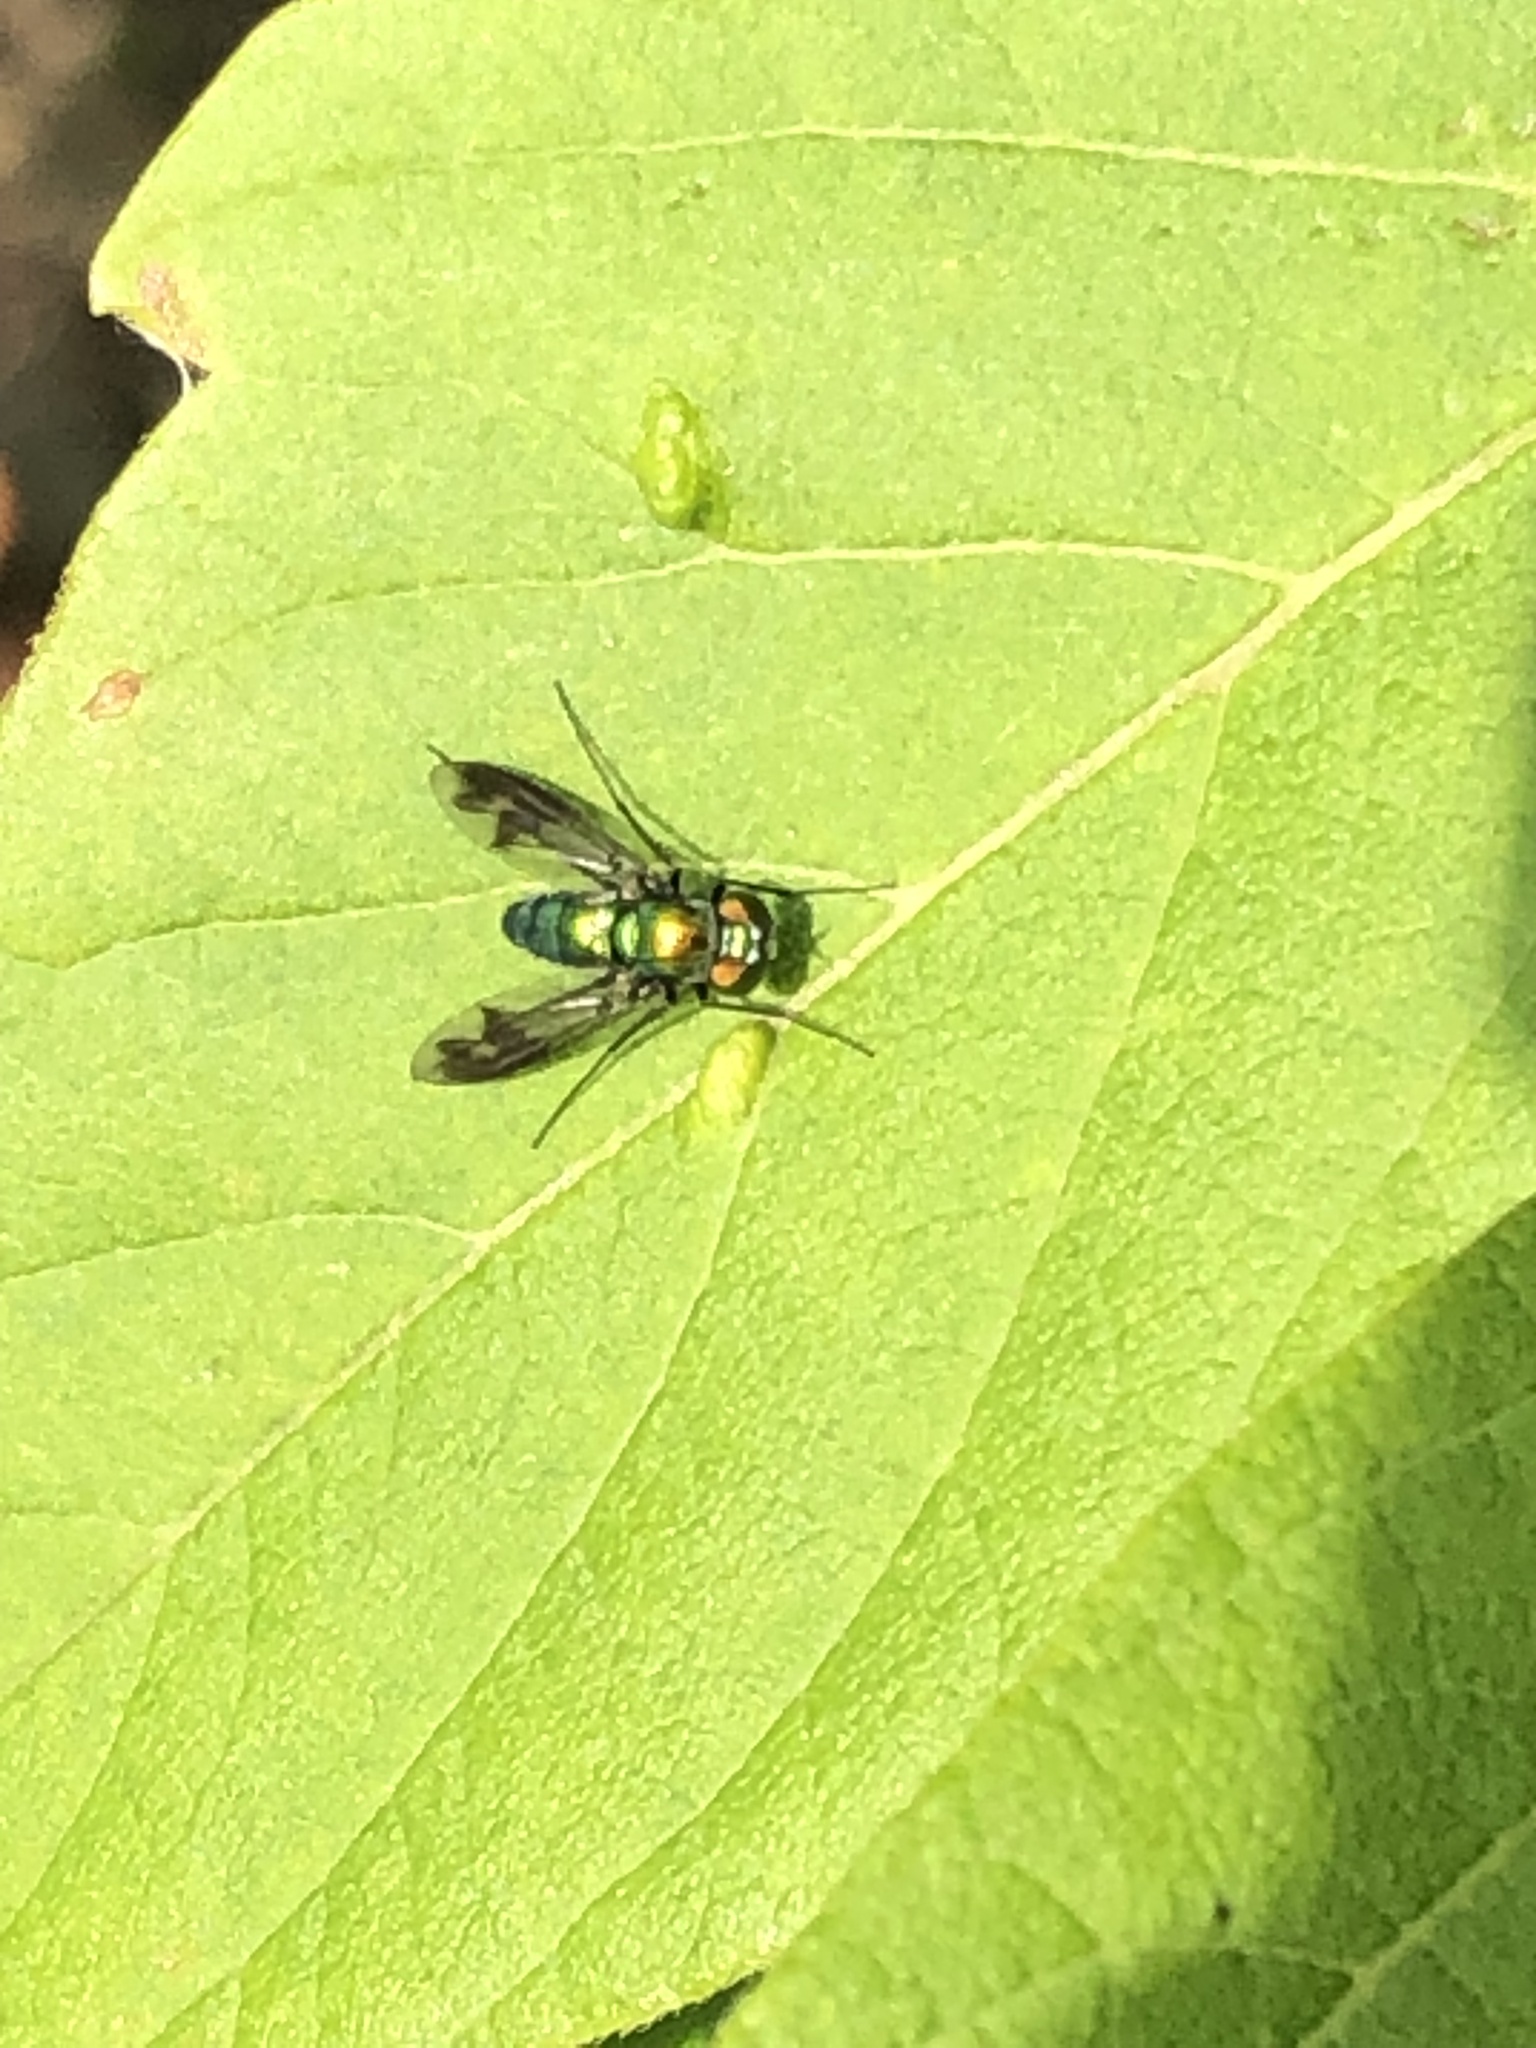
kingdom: Animalia
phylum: Arthropoda
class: Insecta
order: Diptera
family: Dolichopodidae
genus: Condylostylus
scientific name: Condylostylus patibulatus
